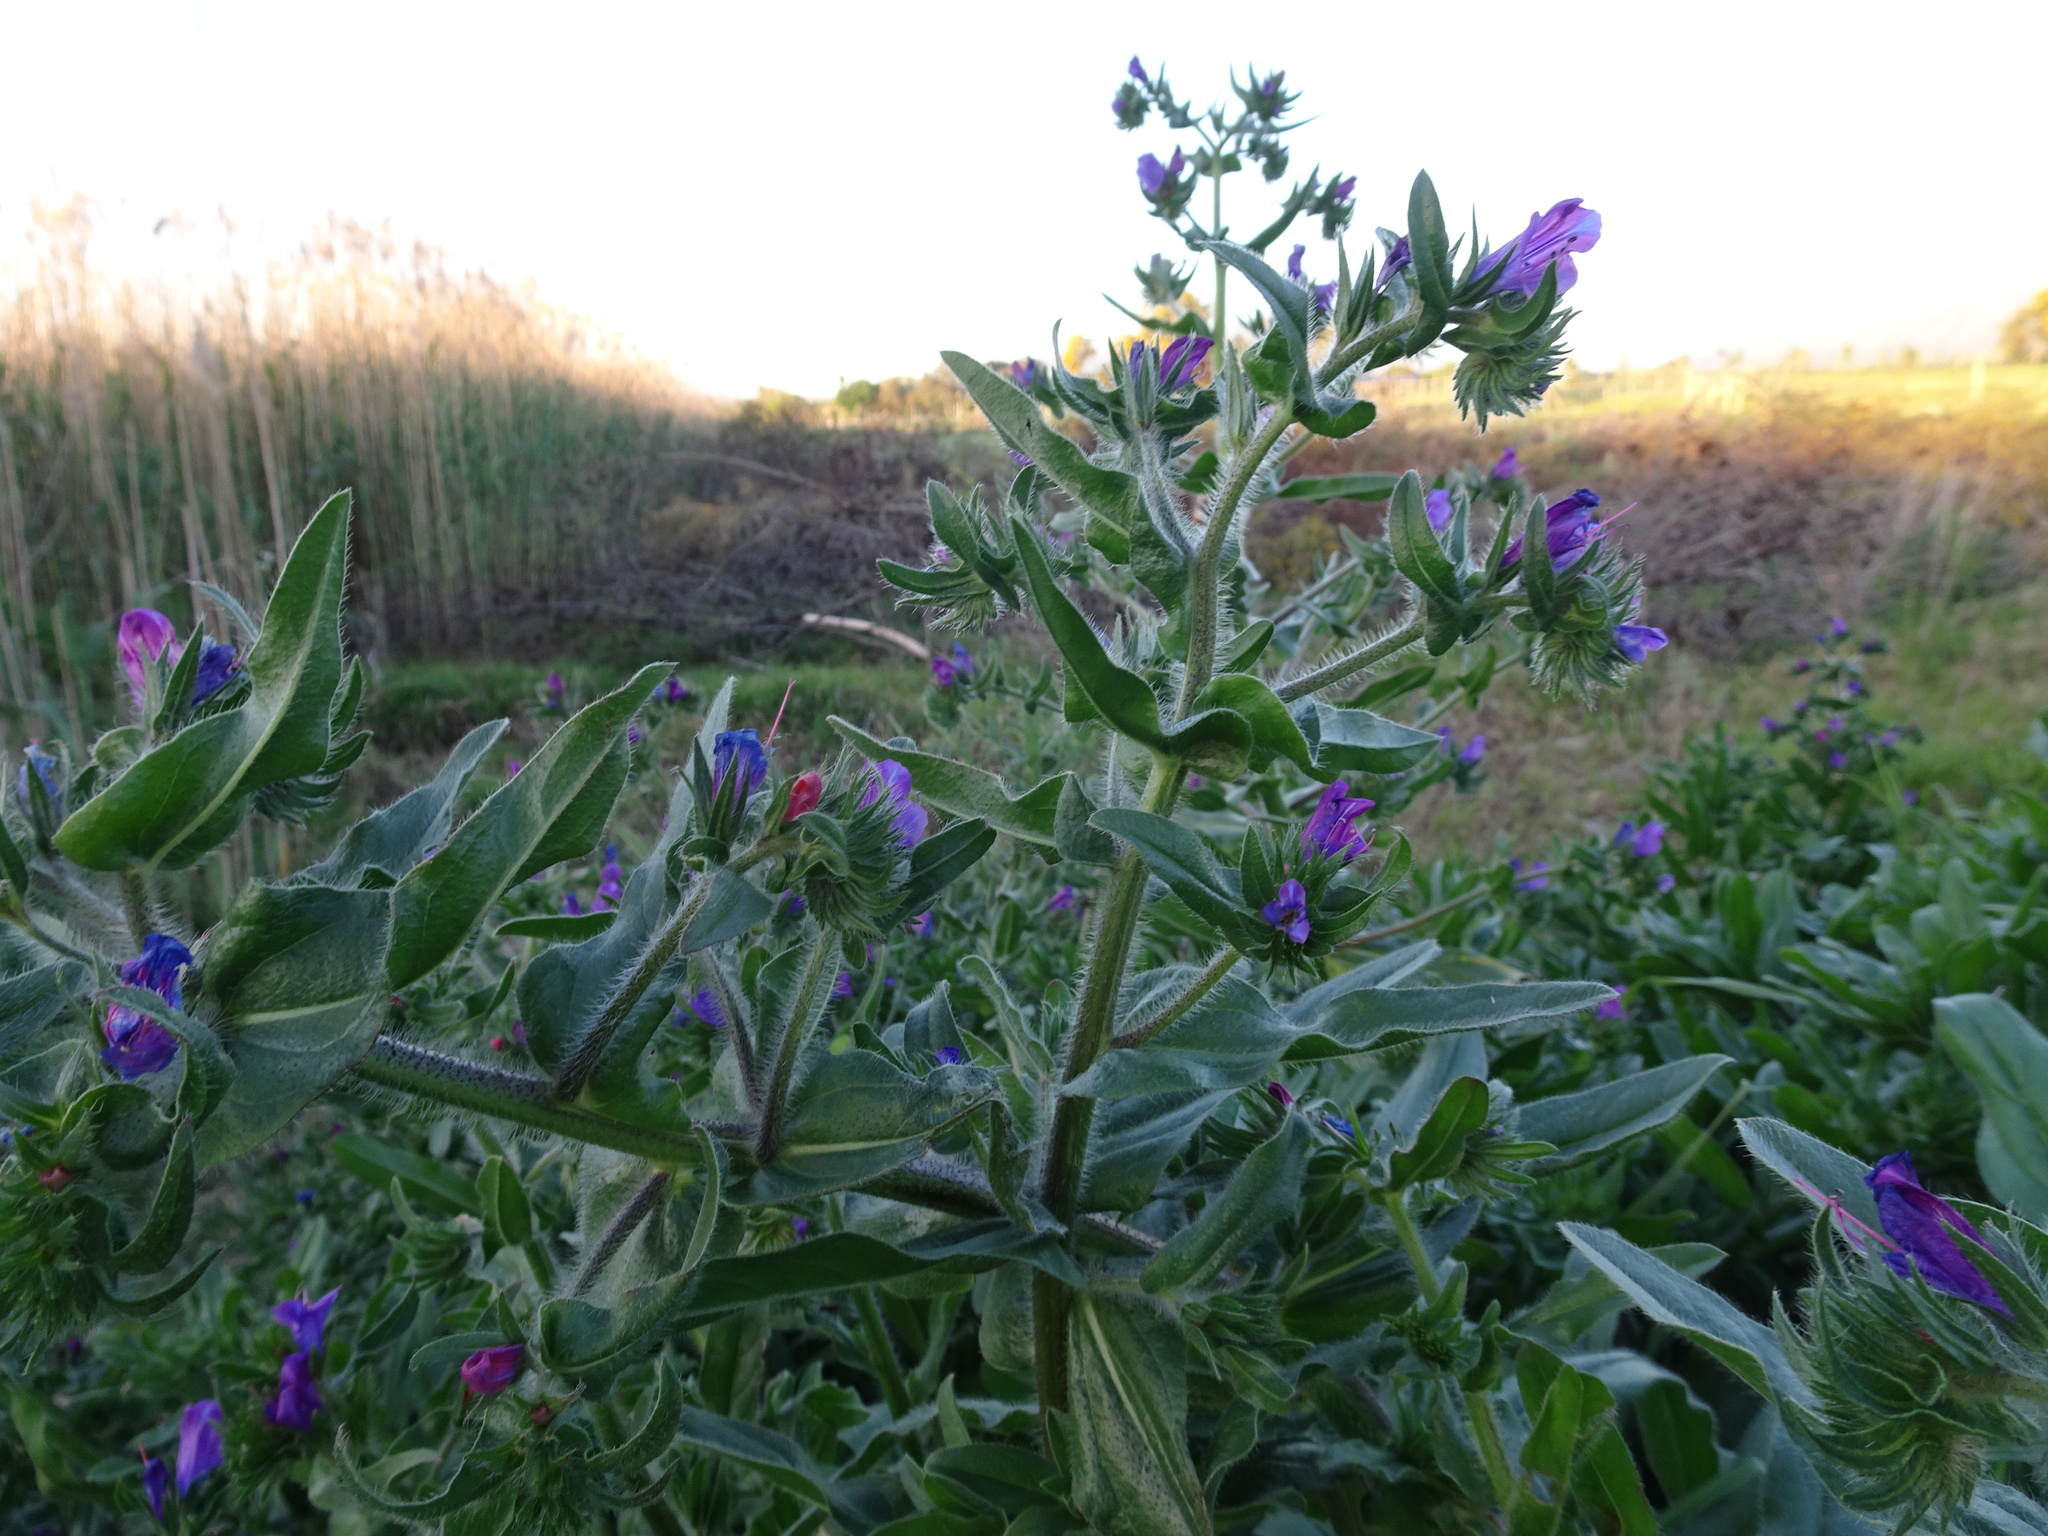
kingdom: Plantae
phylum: Tracheophyta
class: Magnoliopsida
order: Boraginales
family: Boraginaceae
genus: Echium
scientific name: Echium plantagineum
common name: Purple viper's-bugloss
